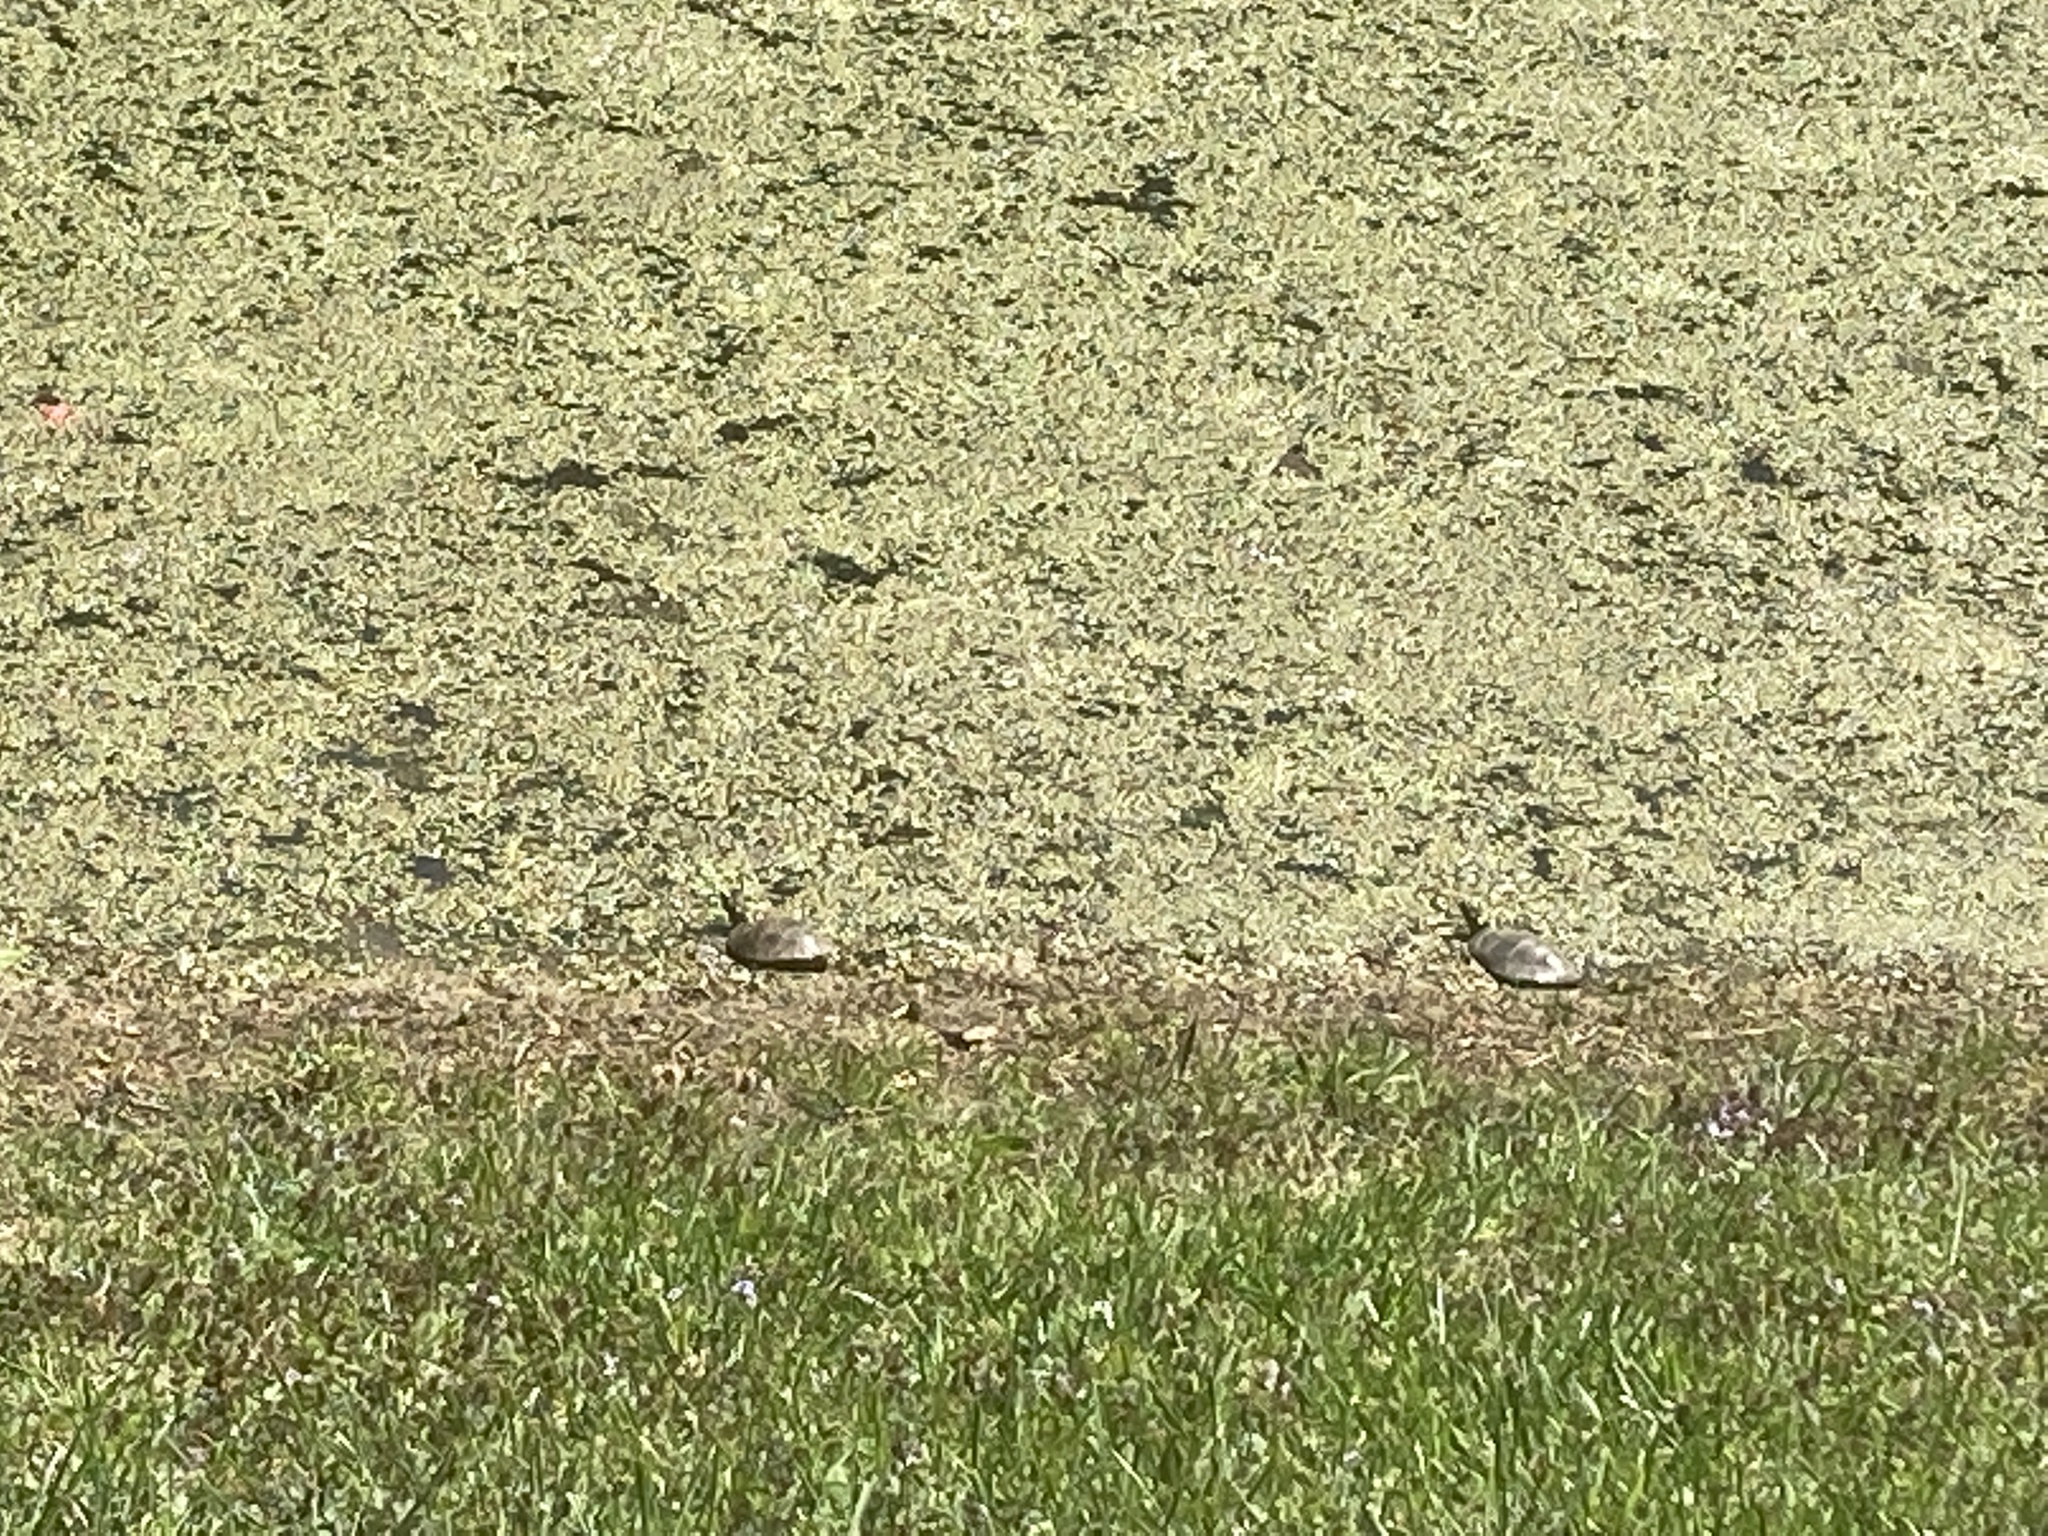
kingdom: Animalia
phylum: Chordata
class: Testudines
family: Emydidae
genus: Chrysemys
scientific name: Chrysemys picta
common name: Painted turtle
